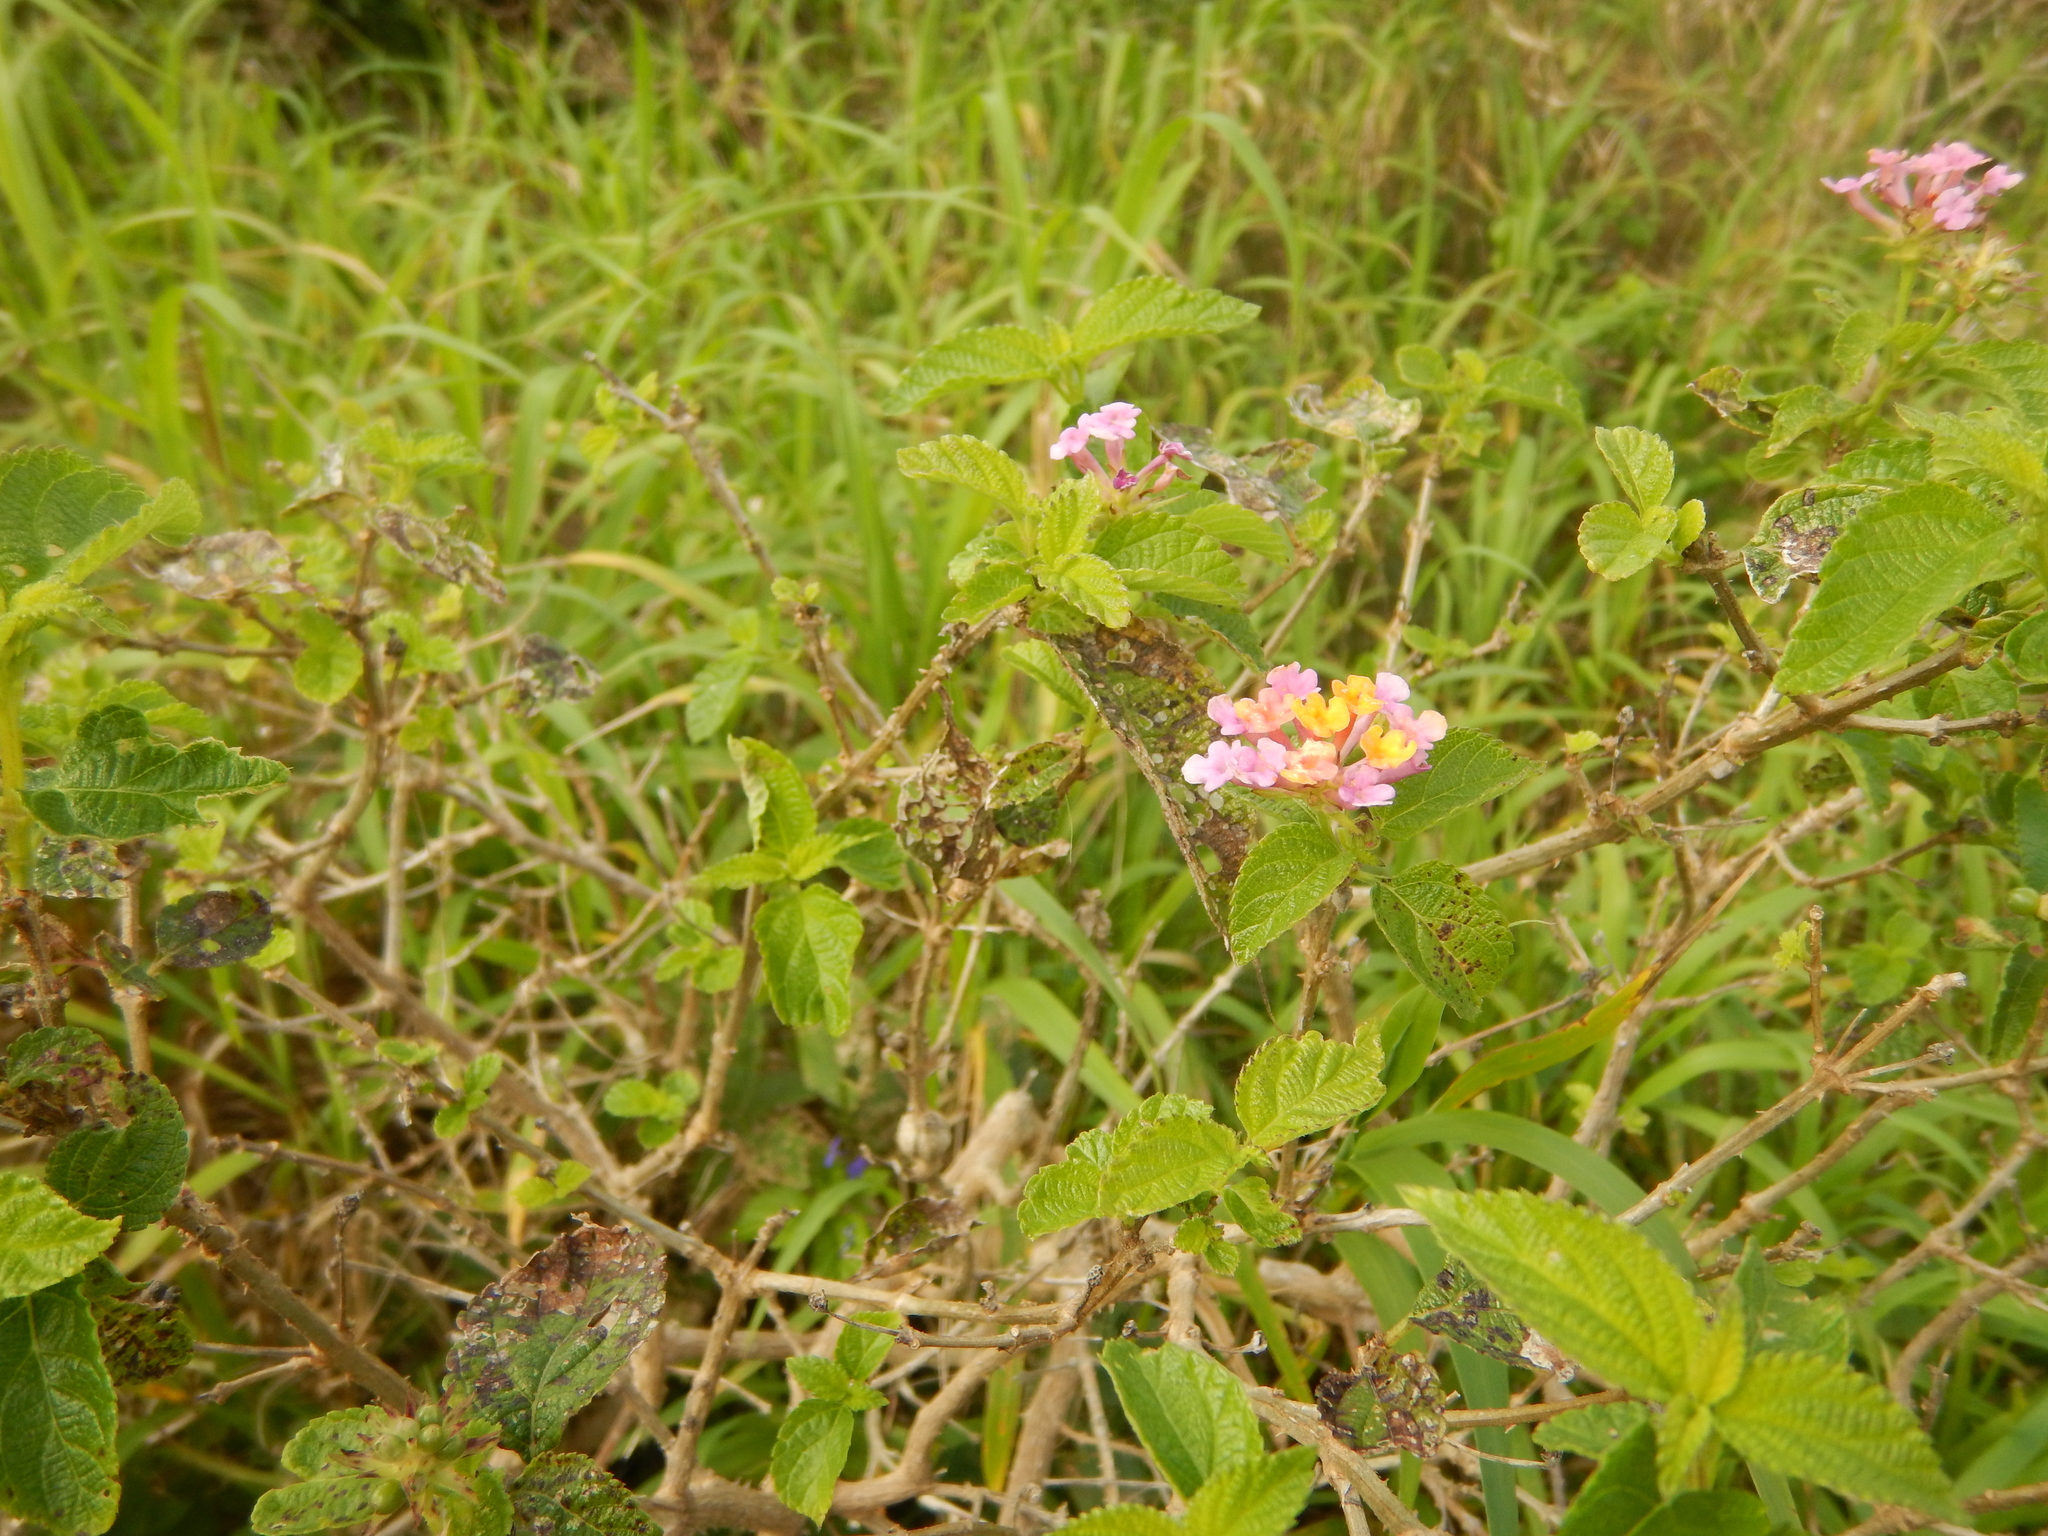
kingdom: Plantae
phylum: Tracheophyta
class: Magnoliopsida
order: Lamiales
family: Verbenaceae
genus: Lantana
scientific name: Lantana camara
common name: Lantana
